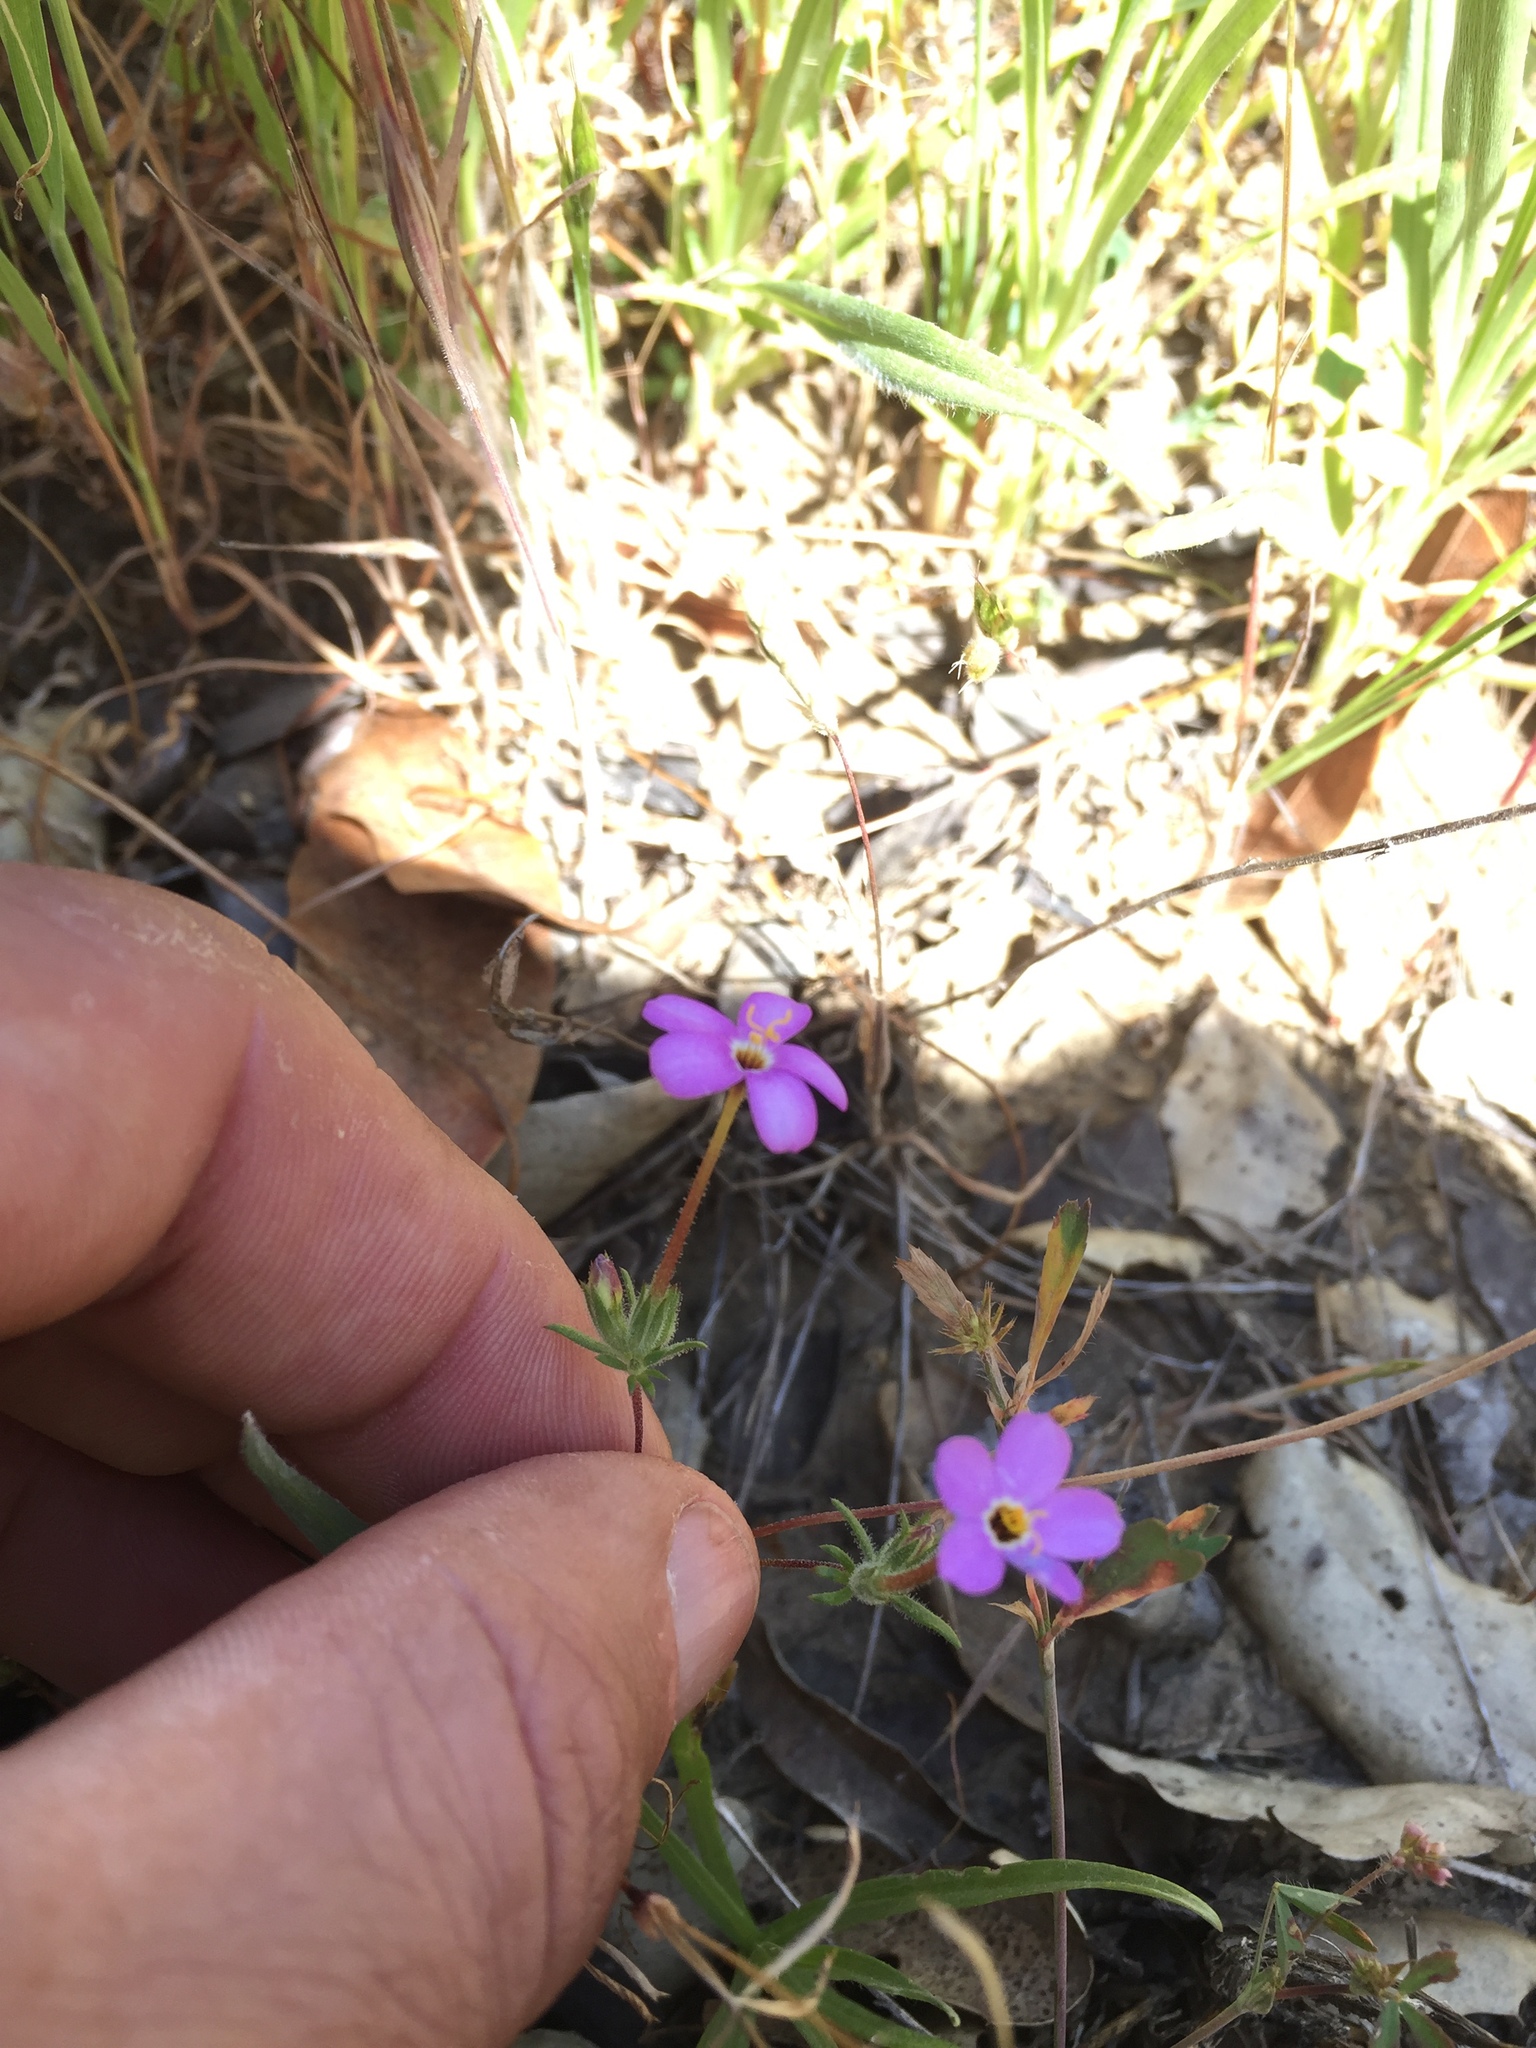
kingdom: Plantae
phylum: Tracheophyta
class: Magnoliopsida
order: Ericales
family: Polemoniaceae
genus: Leptosiphon
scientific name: Leptosiphon parviflorus
